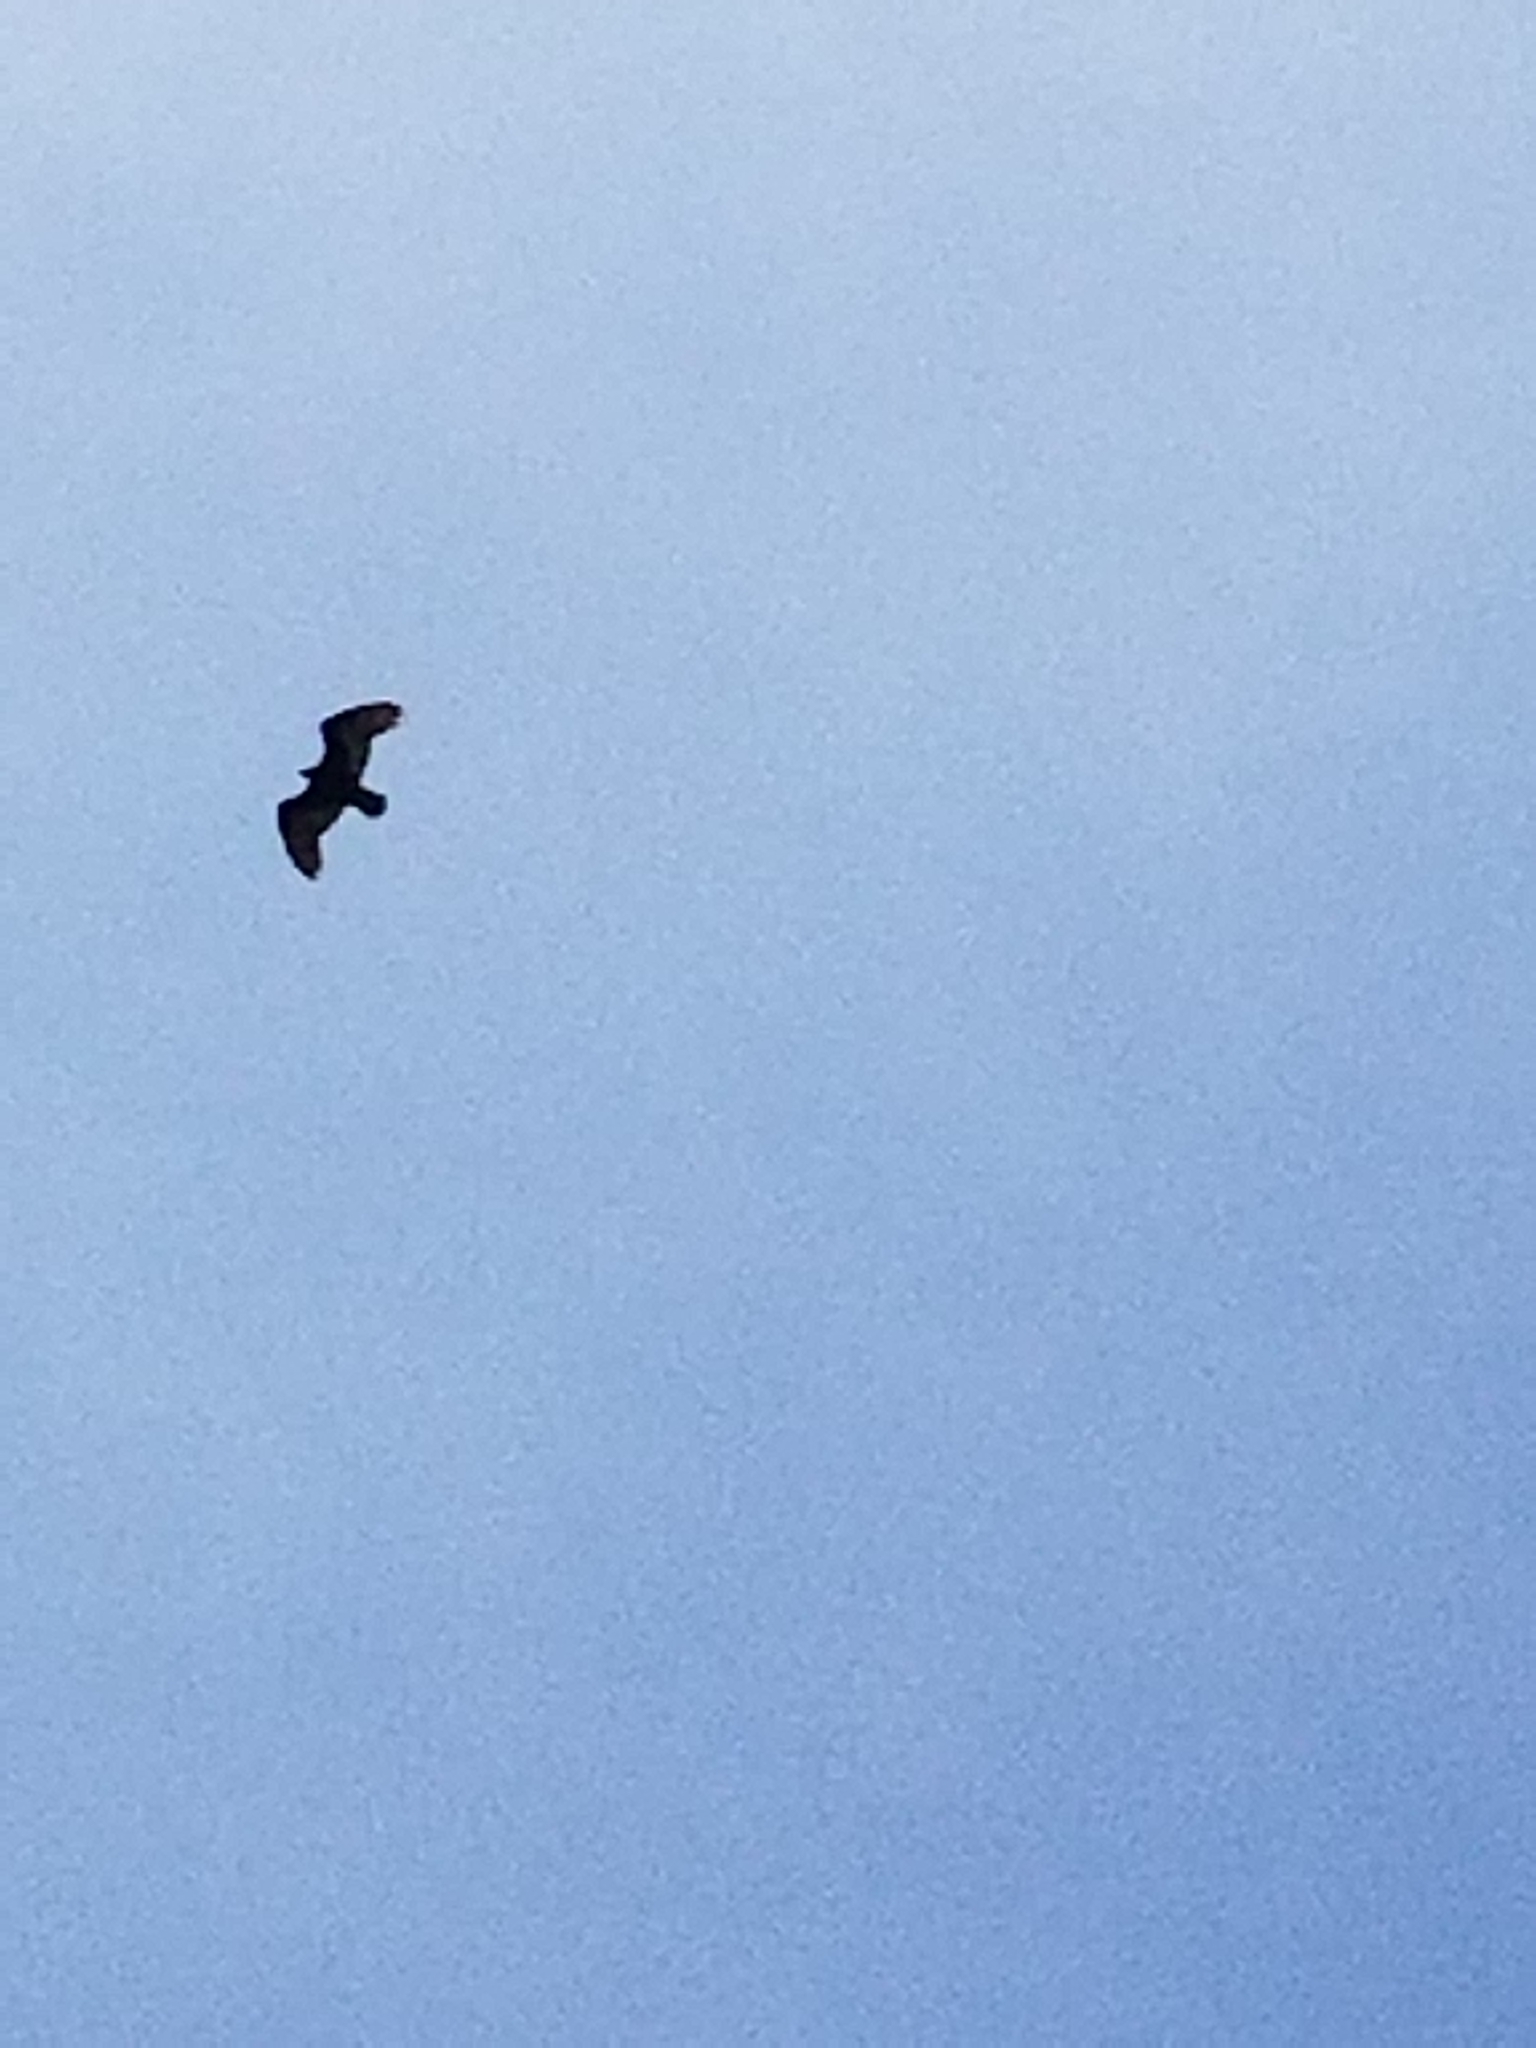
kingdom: Animalia
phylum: Chordata
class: Aves
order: Accipitriformes
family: Cathartidae
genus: Cathartes
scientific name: Cathartes aura
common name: Turkey vulture
